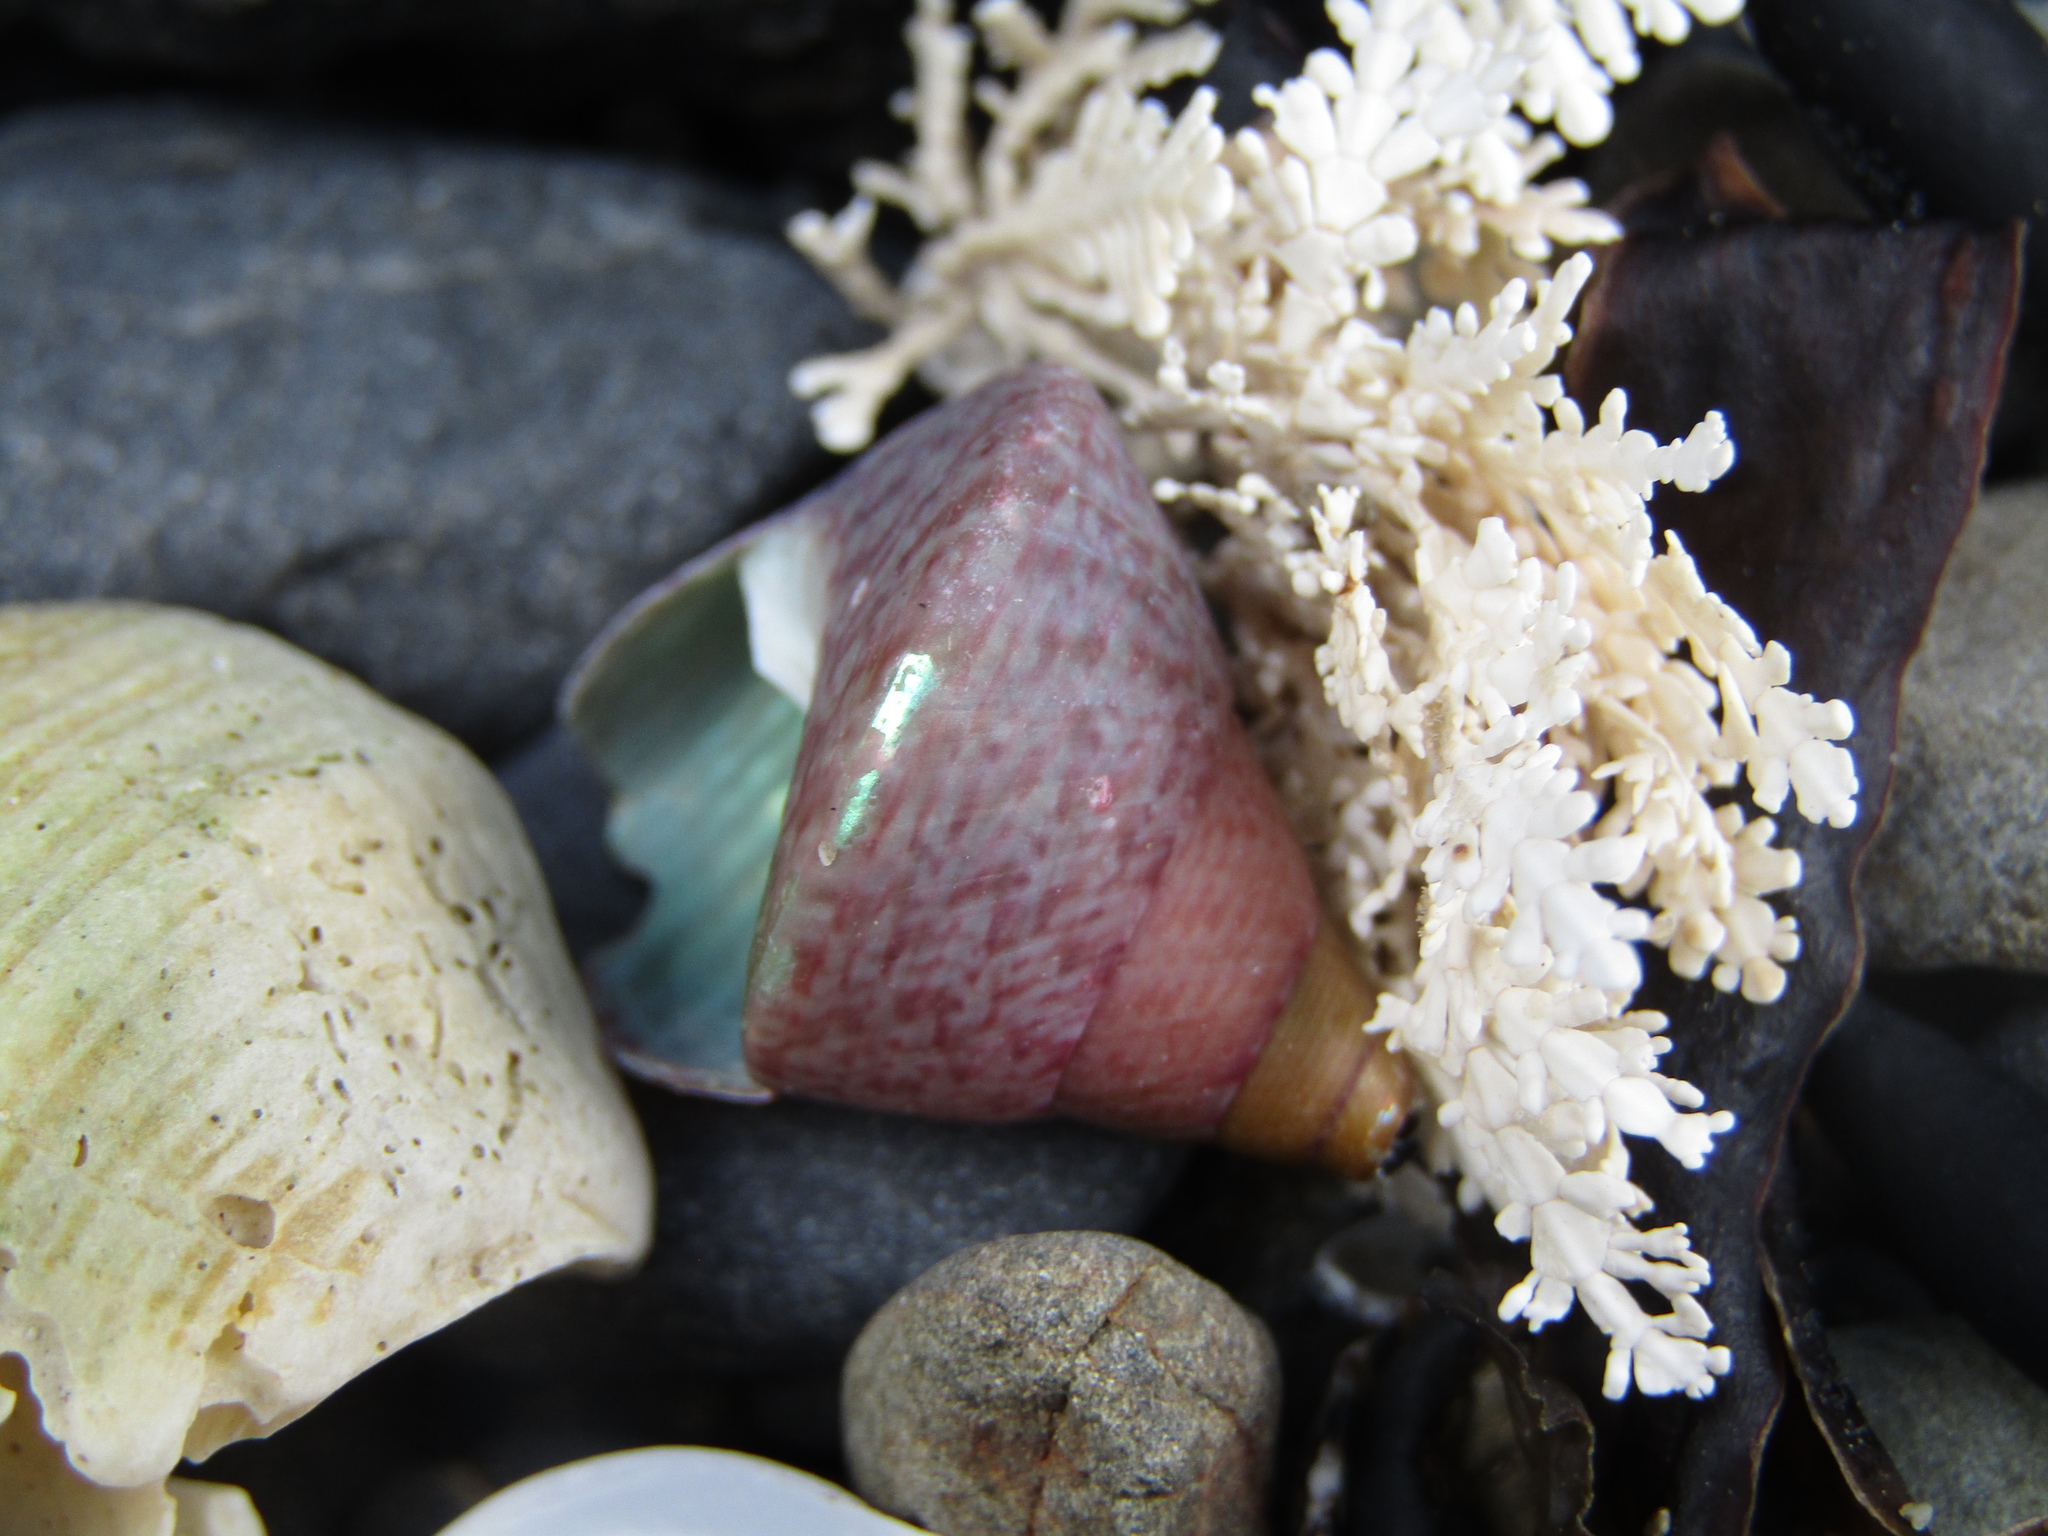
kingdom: Animalia
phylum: Mollusca
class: Gastropoda
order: Trochida
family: Trochidae
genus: Cantharidus
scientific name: Cantharidus opalus
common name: Opal jewel topsnail
